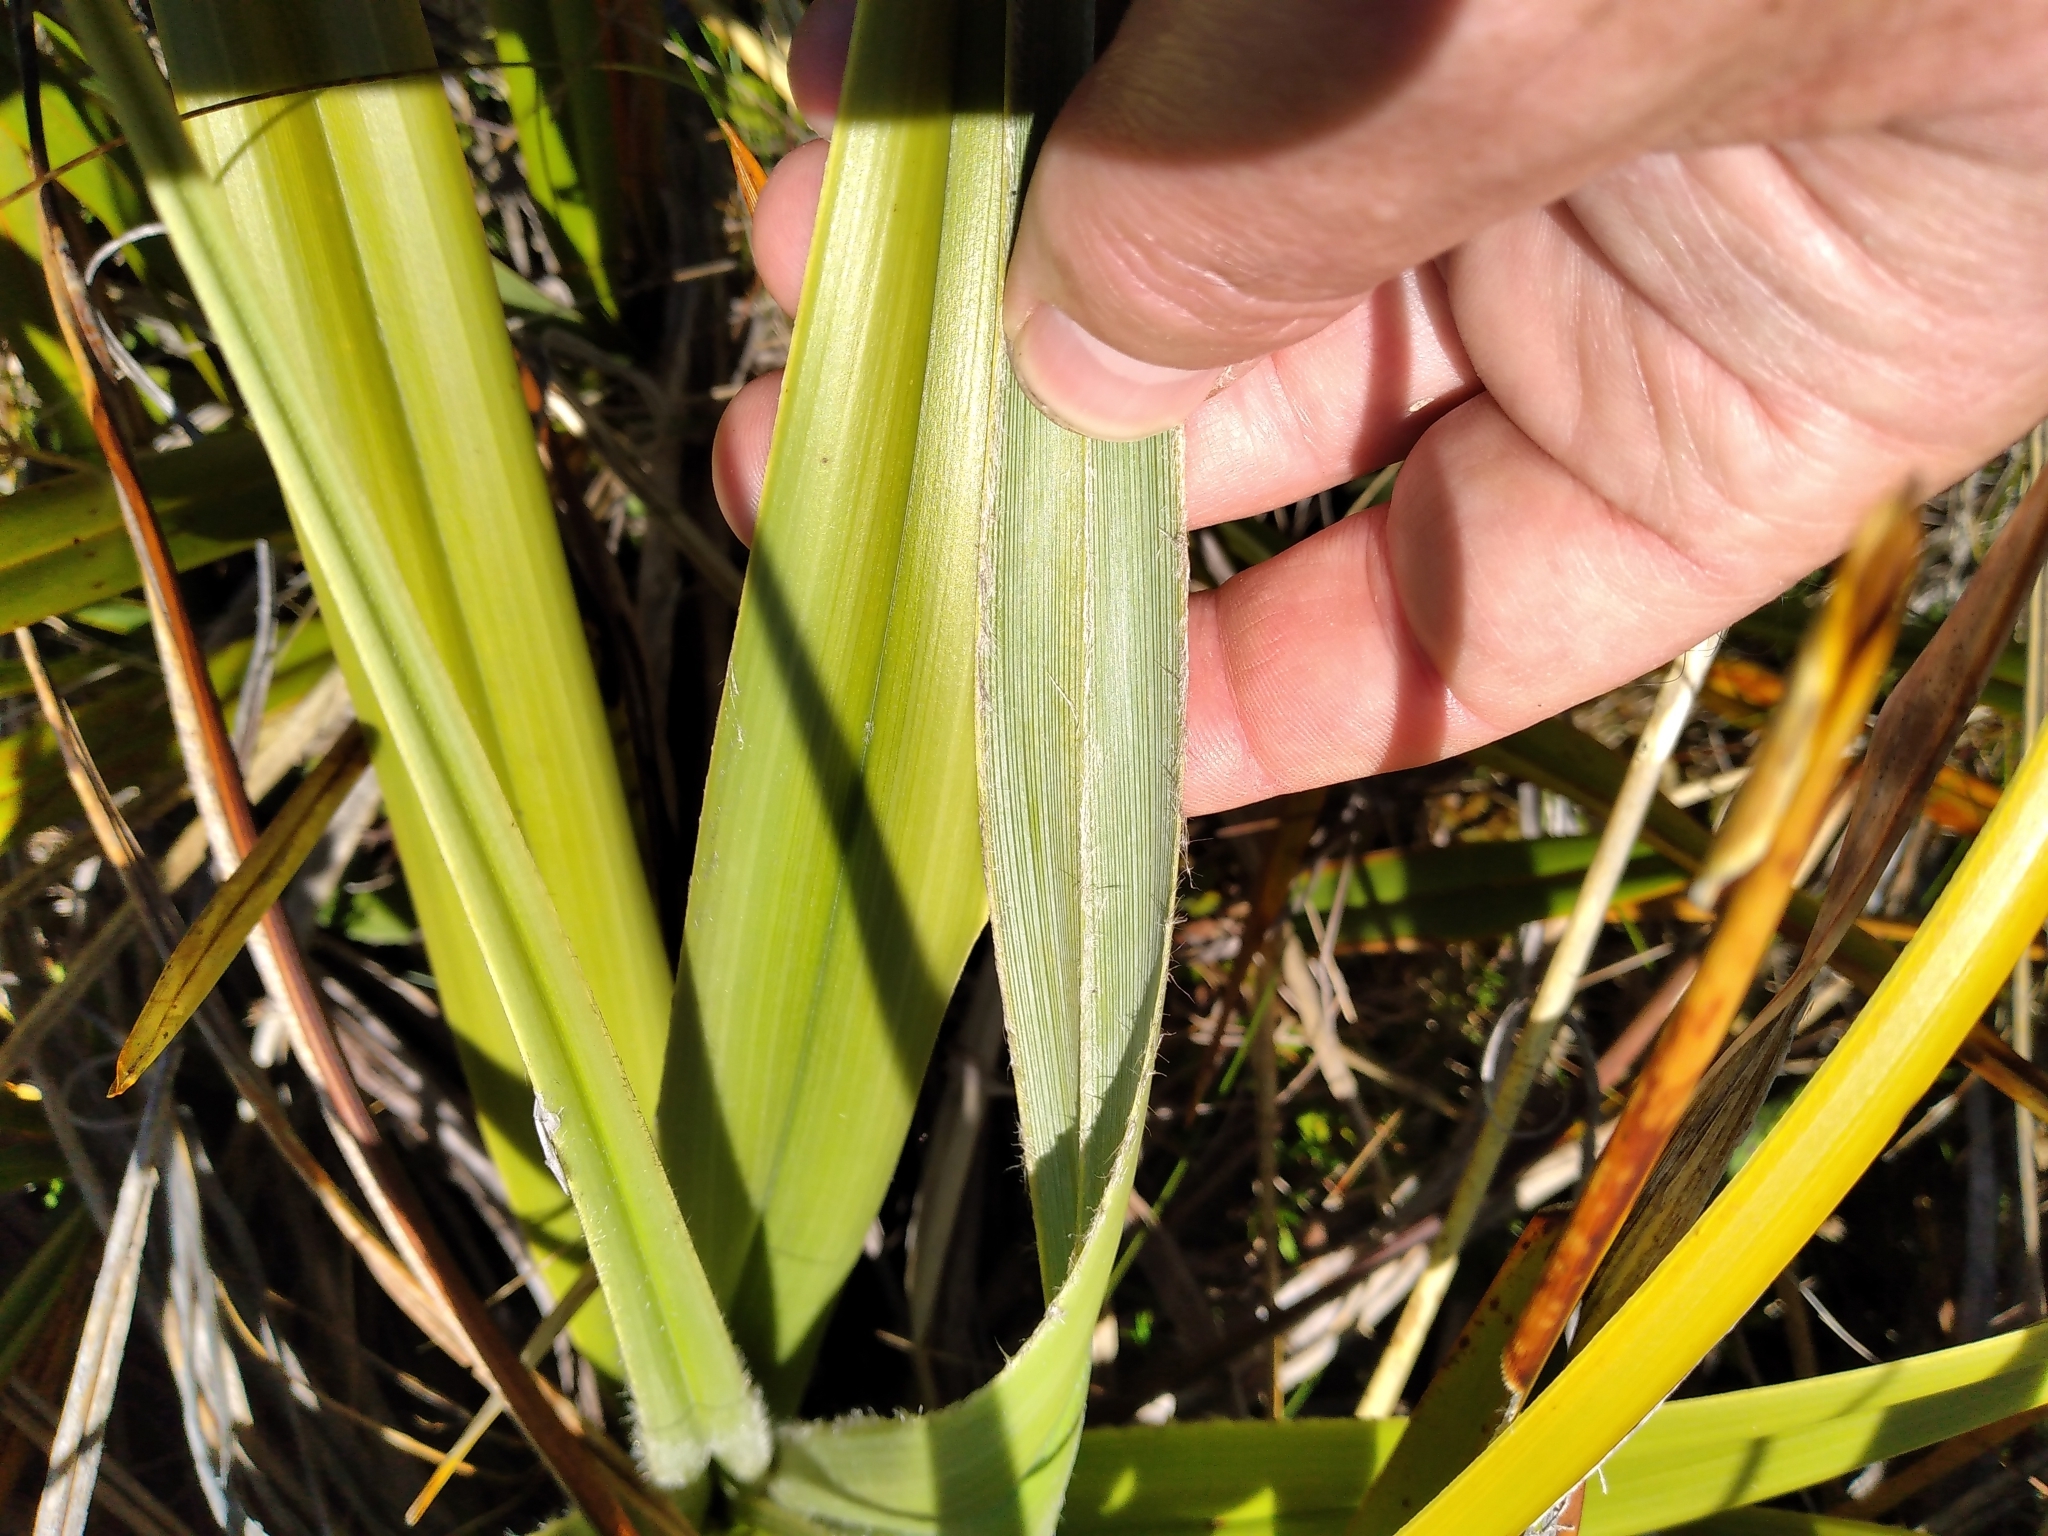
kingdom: Plantae
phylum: Tracheophyta
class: Liliopsida
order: Asparagales
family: Asteliaceae
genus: Astelia
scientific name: Astelia skottsbergii
